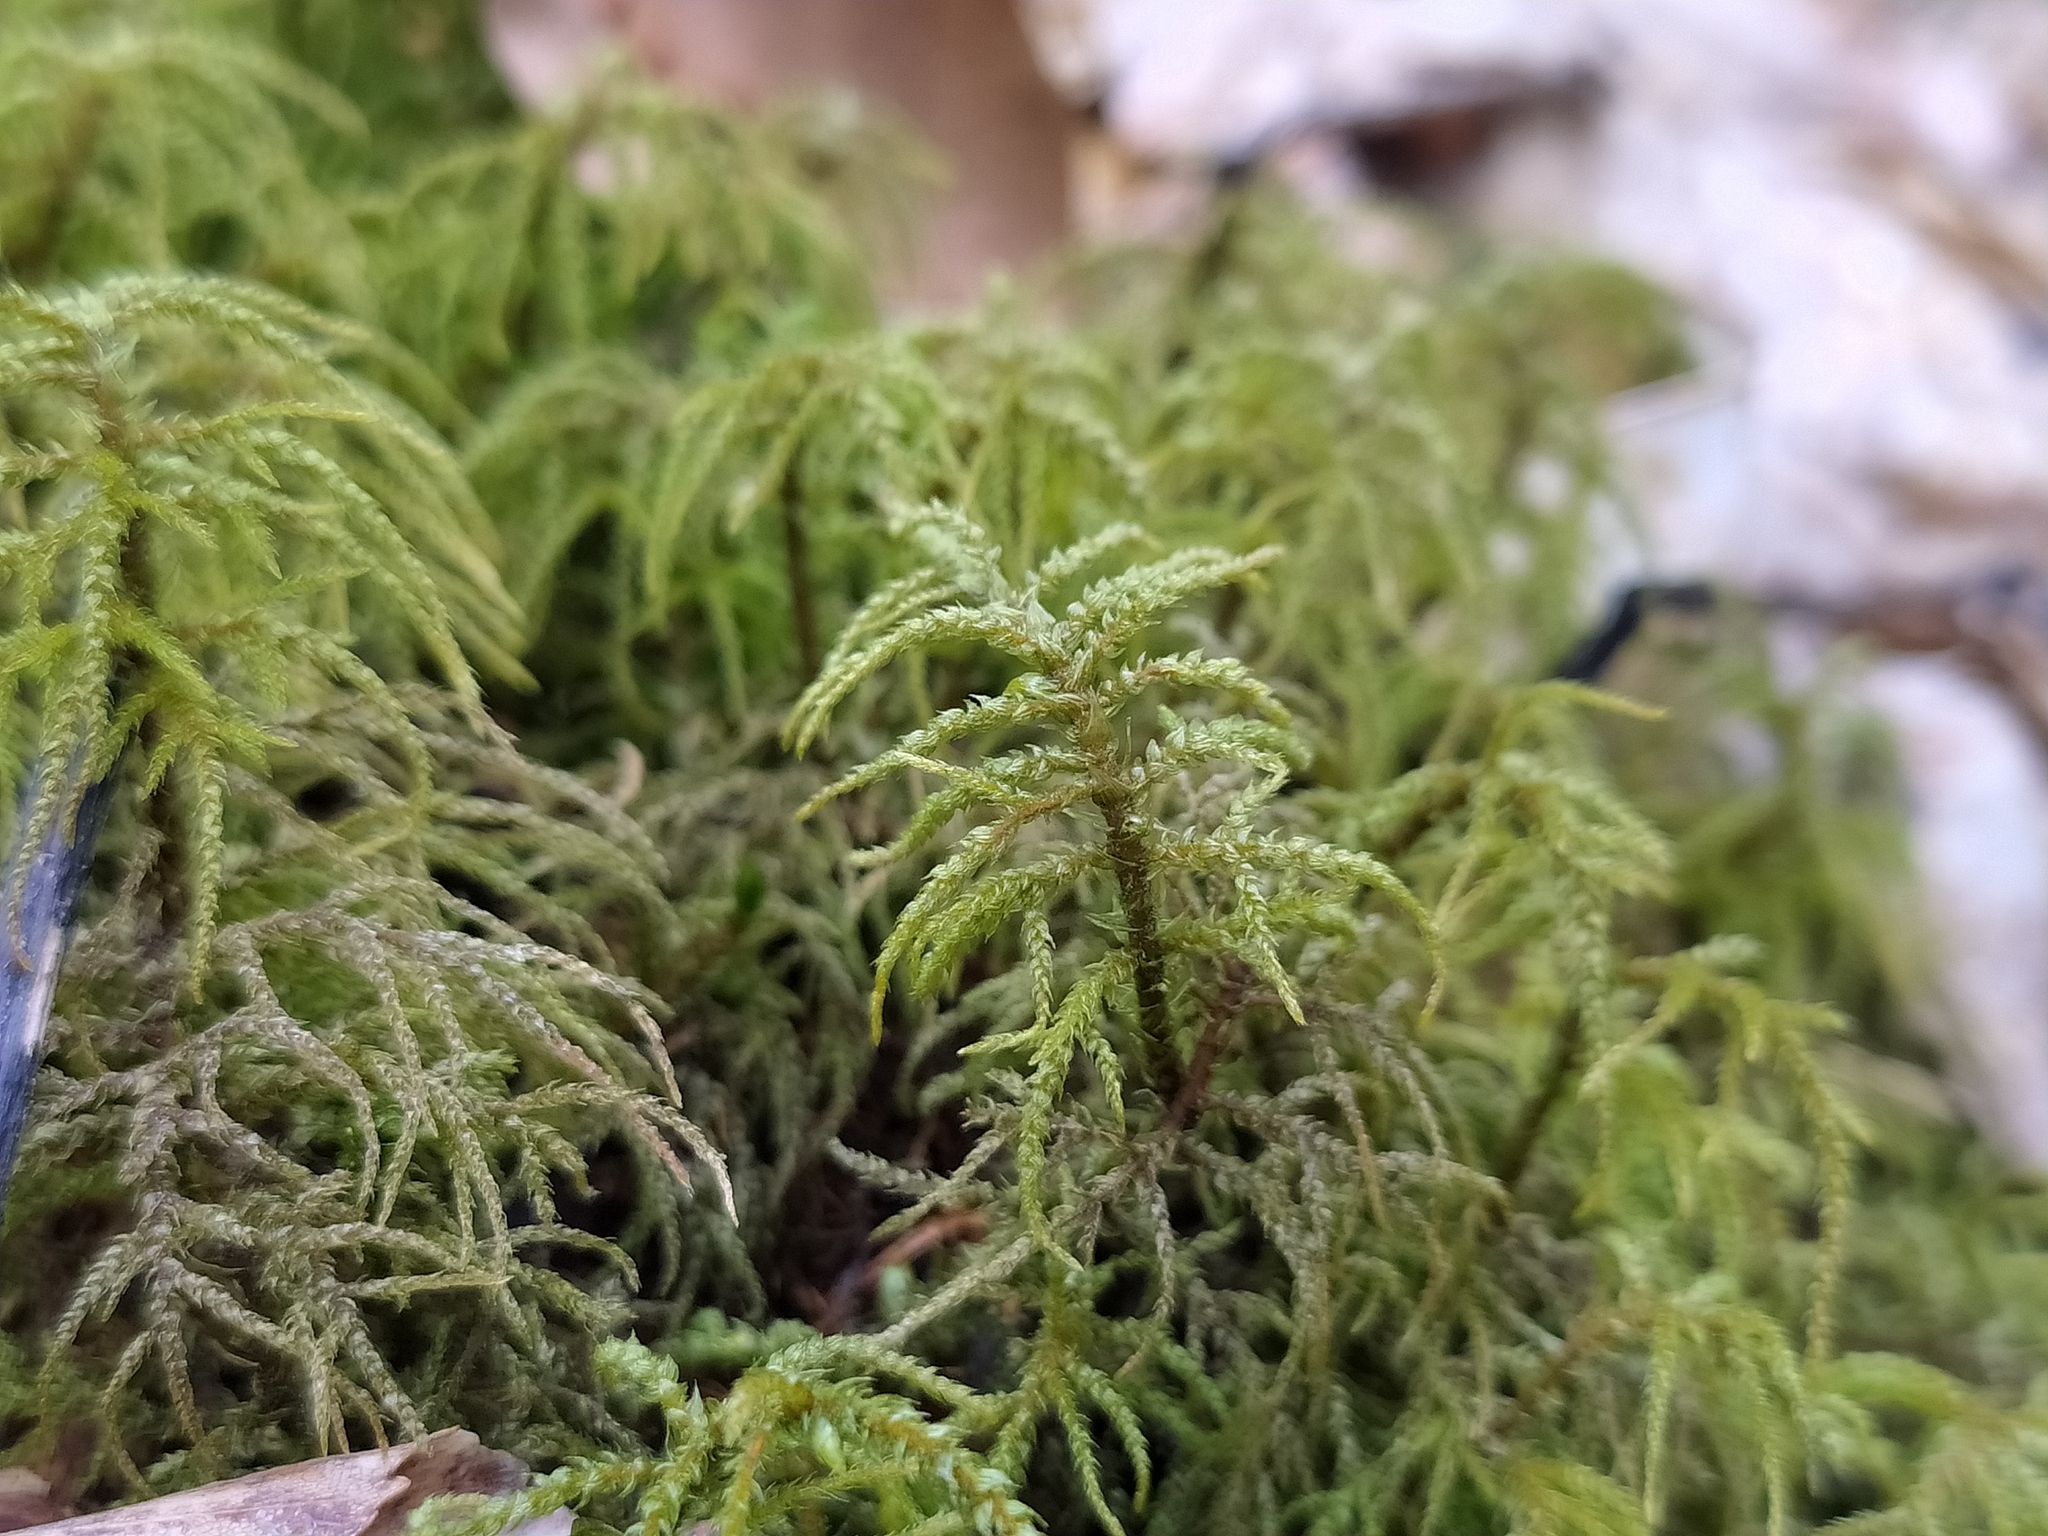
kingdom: Plantae
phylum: Bryophyta
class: Bryopsida
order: Hypnales
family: Hylocomiaceae
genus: Hylocomiastrum
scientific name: Hylocomiastrum umbratum
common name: Shaded woods moss
